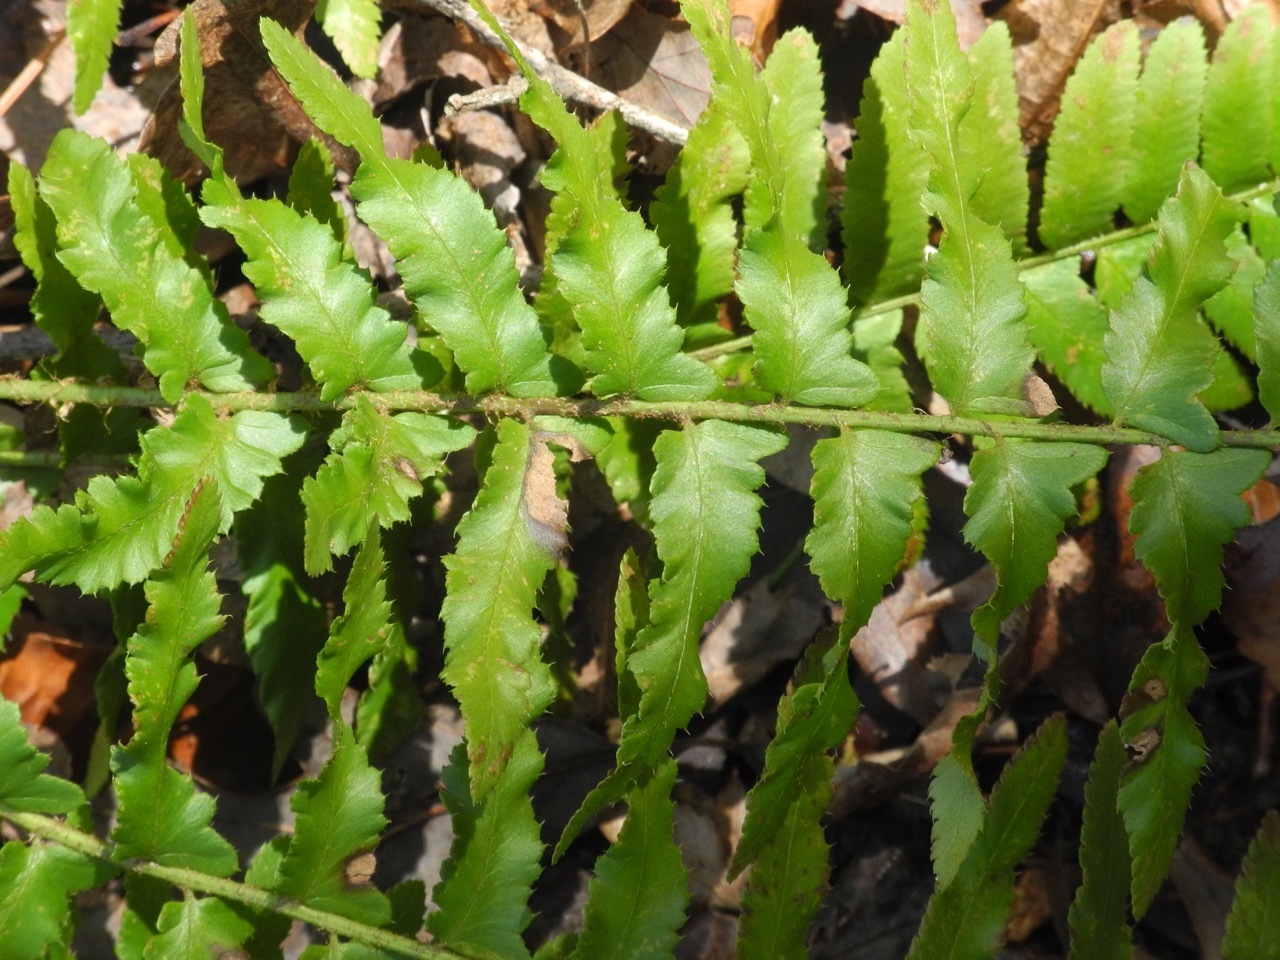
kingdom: Plantae
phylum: Tracheophyta
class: Polypodiopsida
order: Polypodiales
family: Dryopteridaceae
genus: Polystichum
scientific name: Polystichum acrostichoides
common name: Christmas fern
